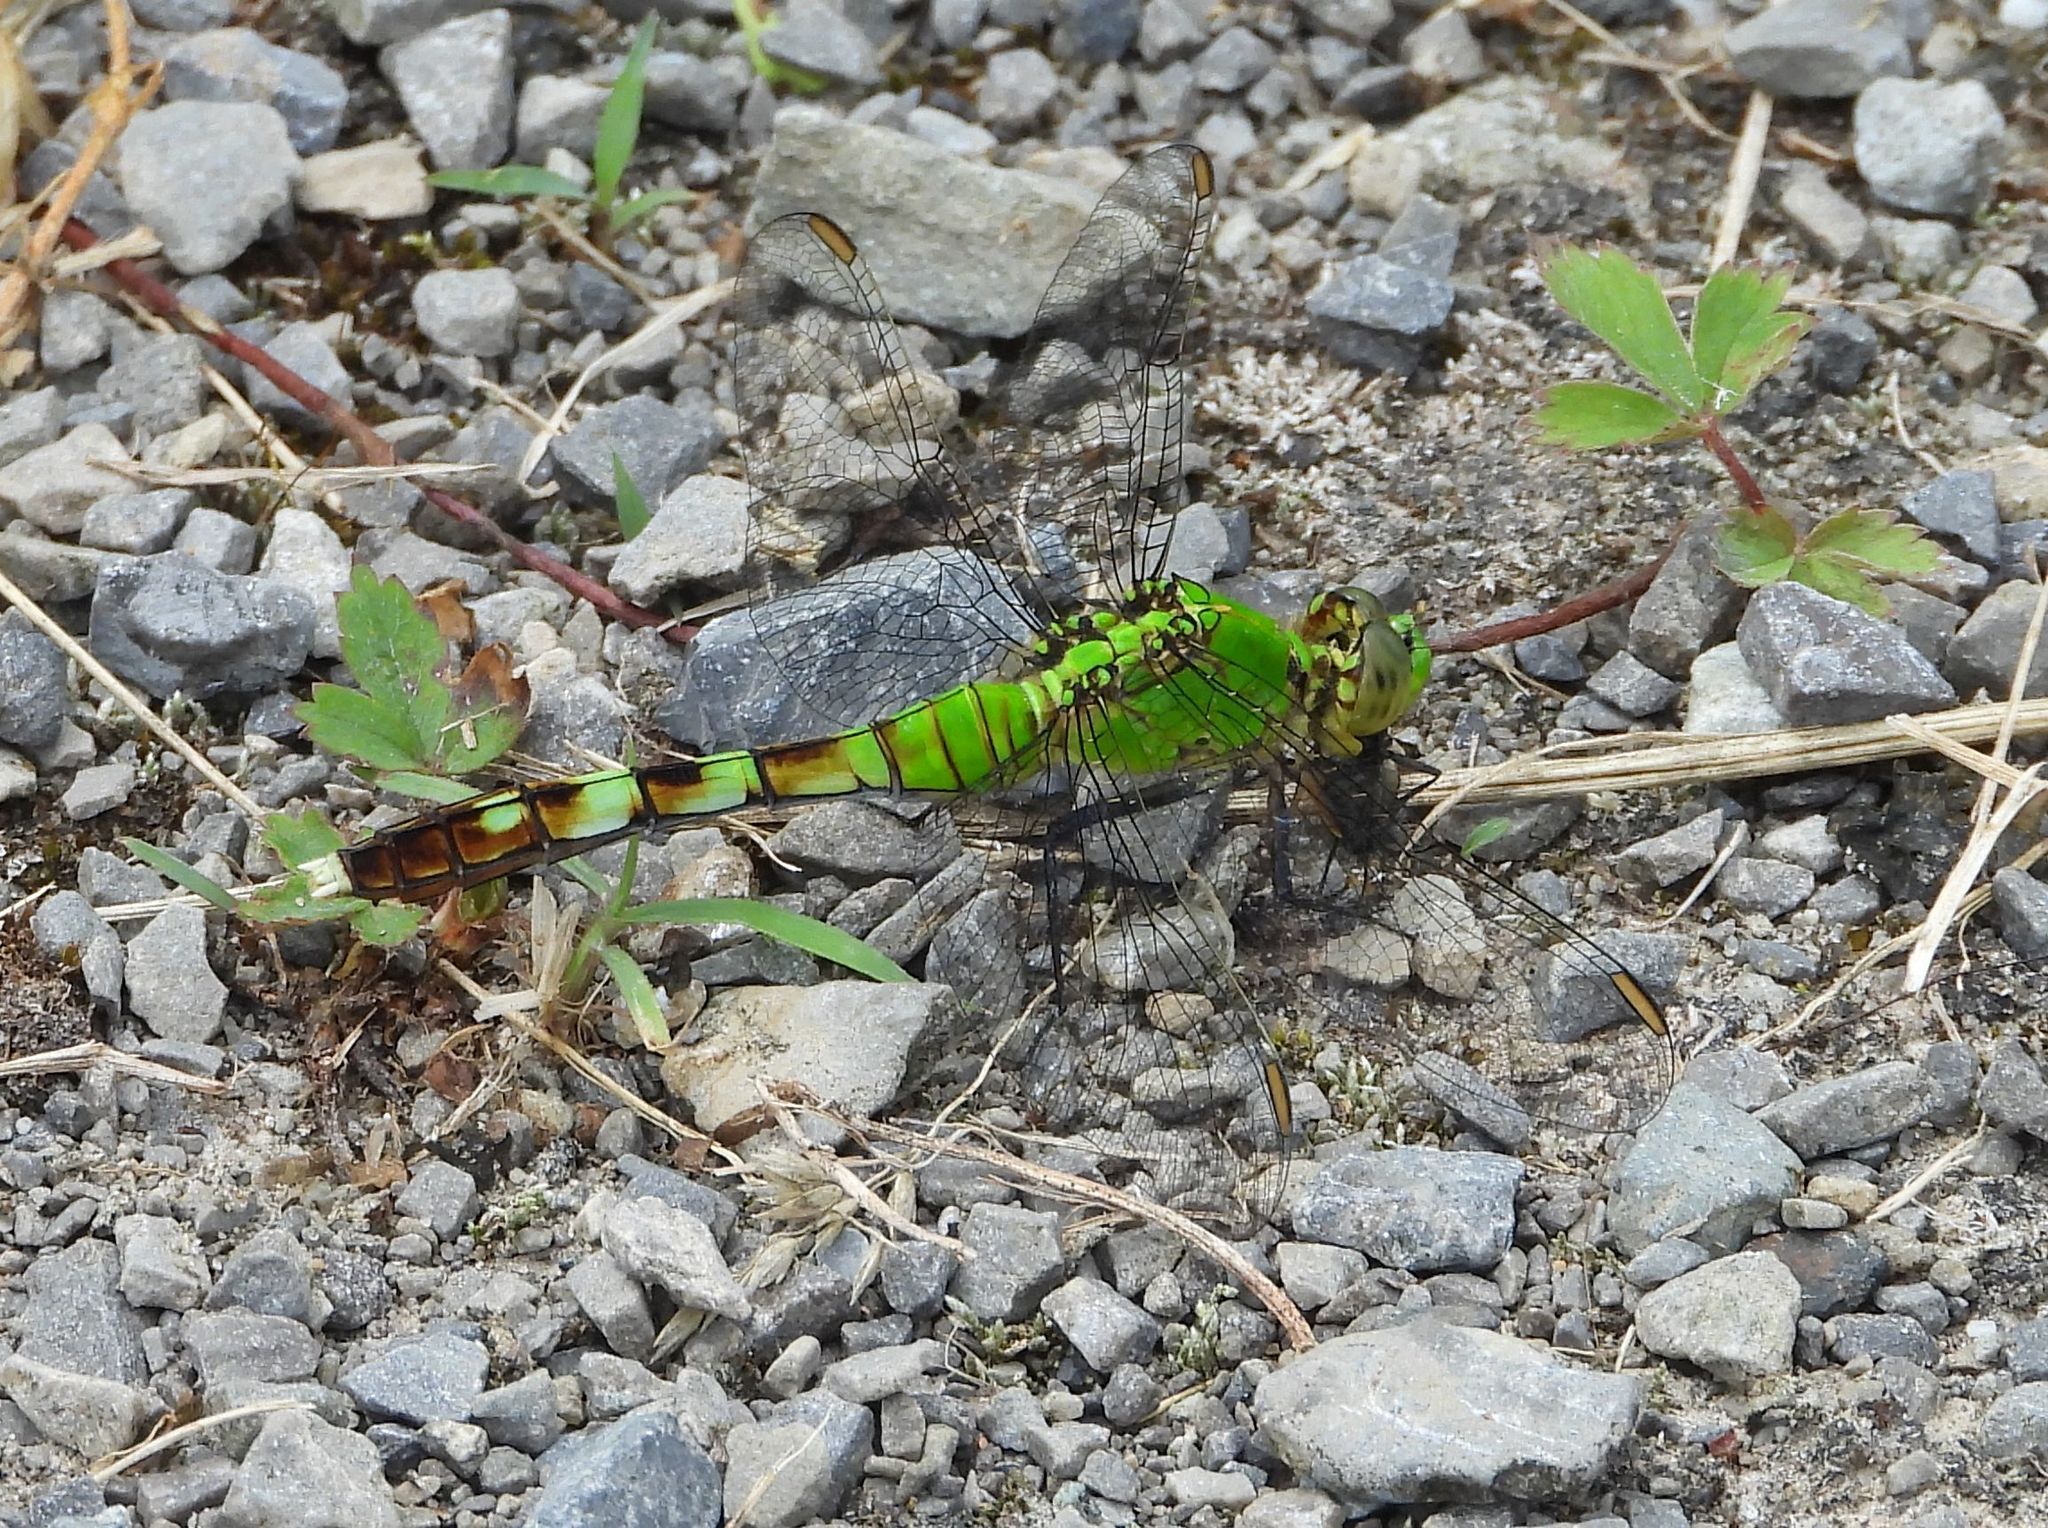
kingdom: Animalia
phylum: Arthropoda
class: Insecta
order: Odonata
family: Libellulidae
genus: Erythemis
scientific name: Erythemis simplicicollis
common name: Eastern pondhawk
